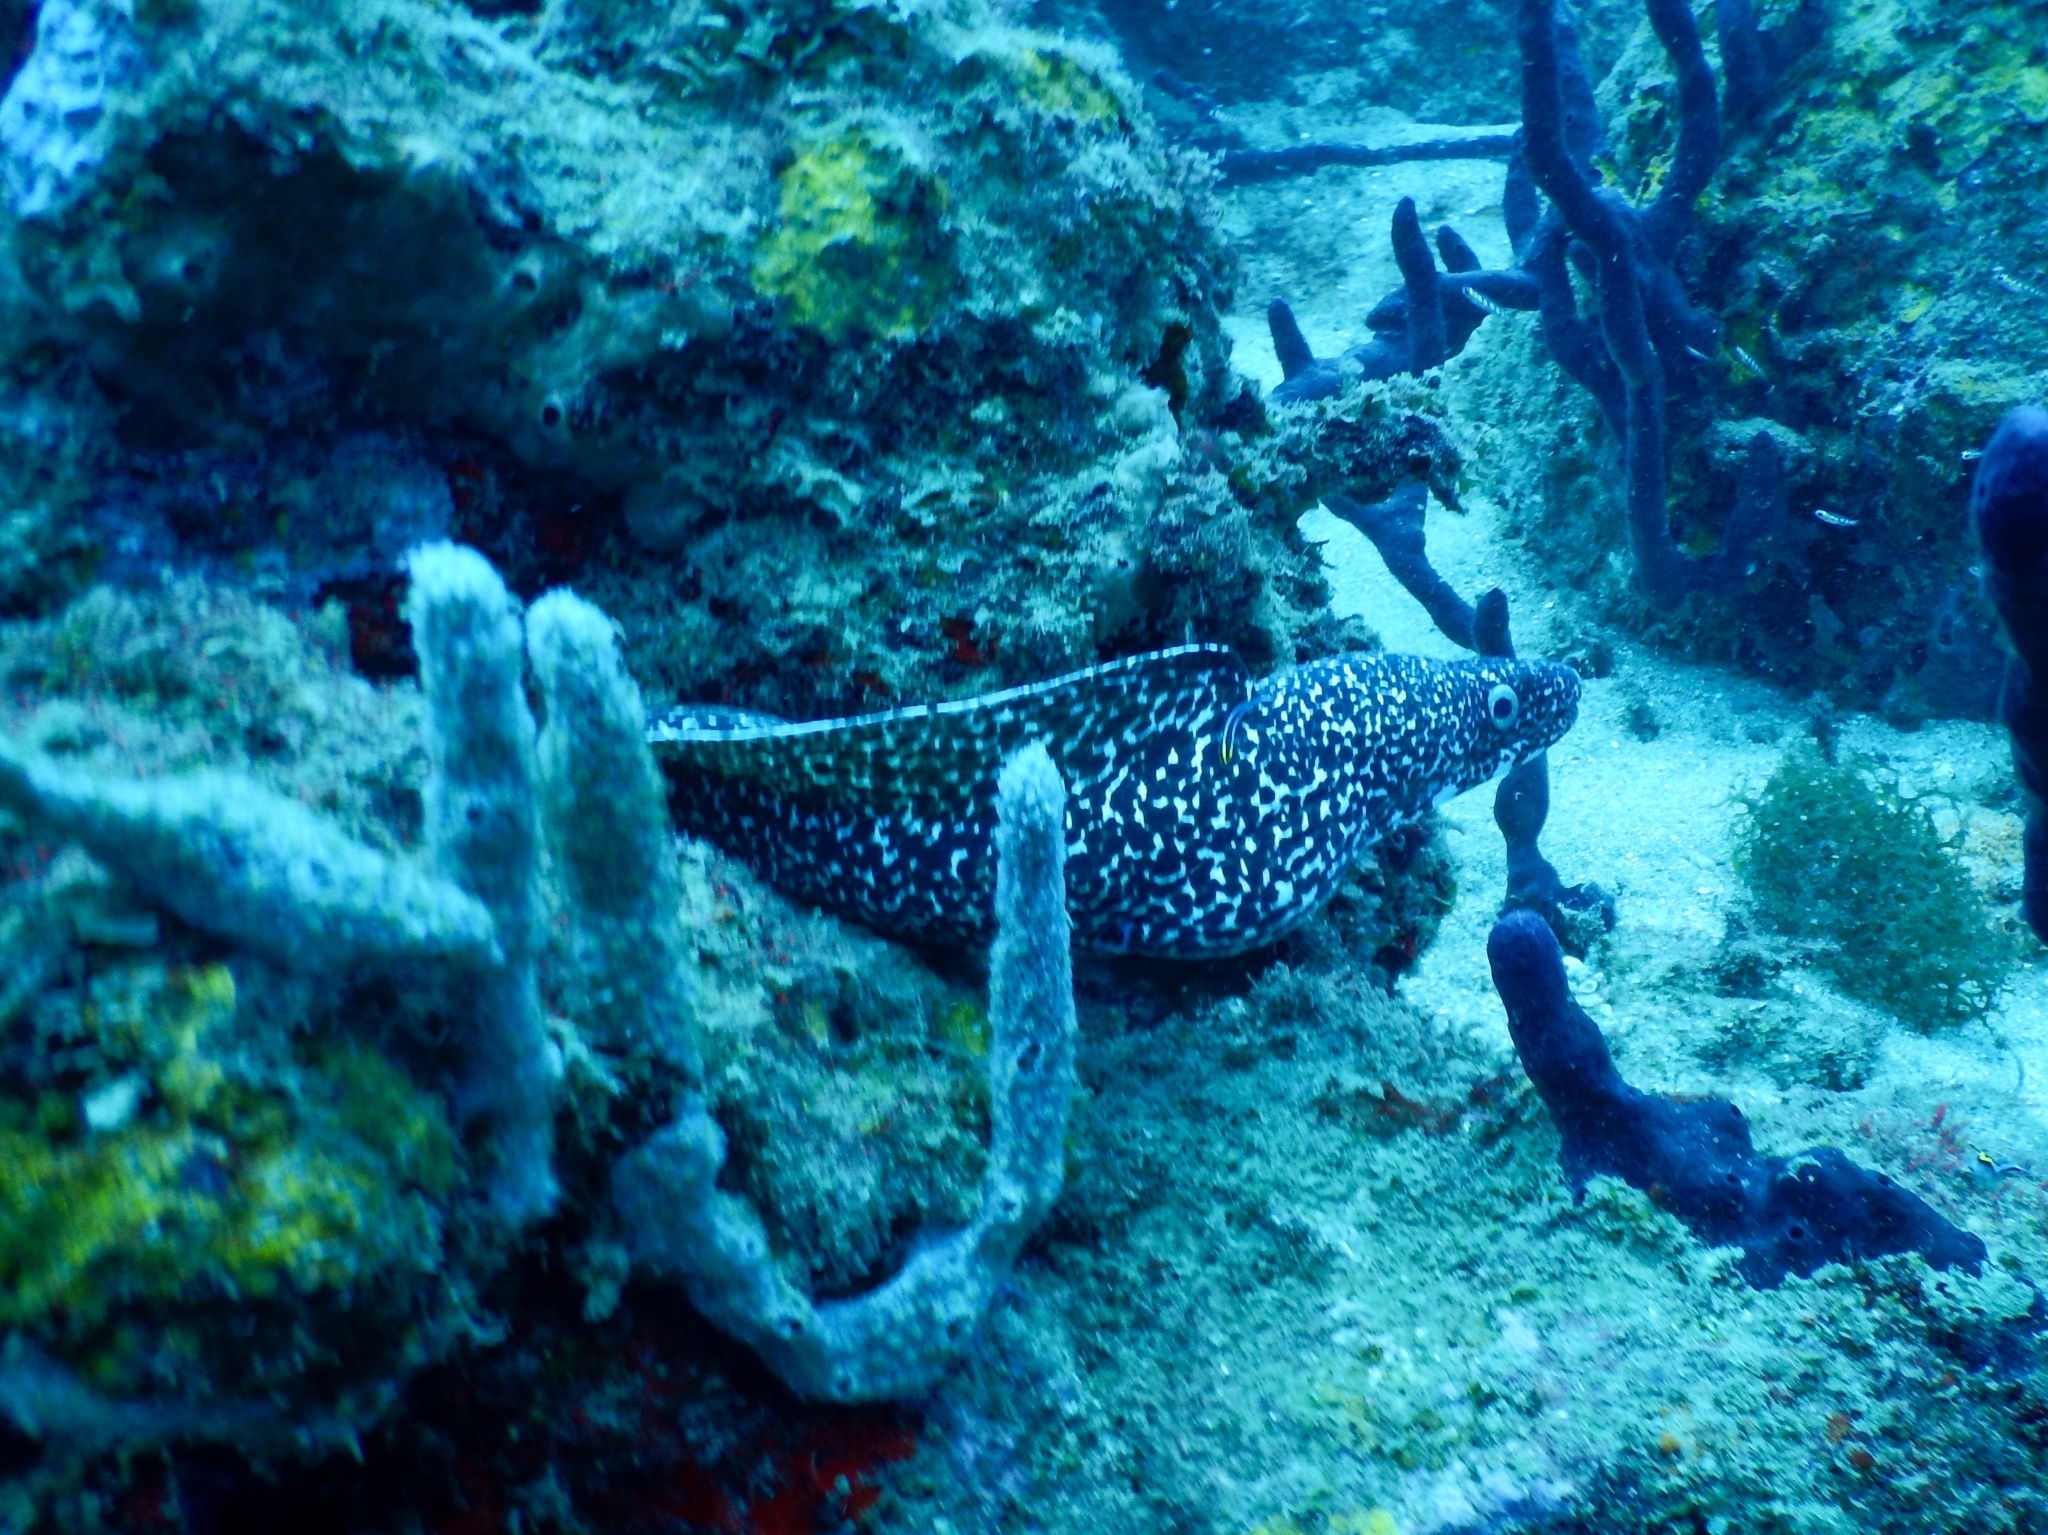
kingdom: Animalia
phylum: Chordata
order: Anguilliformes
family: Muraenidae
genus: Gymnothorax
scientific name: Gymnothorax moringa
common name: Spotted moray
